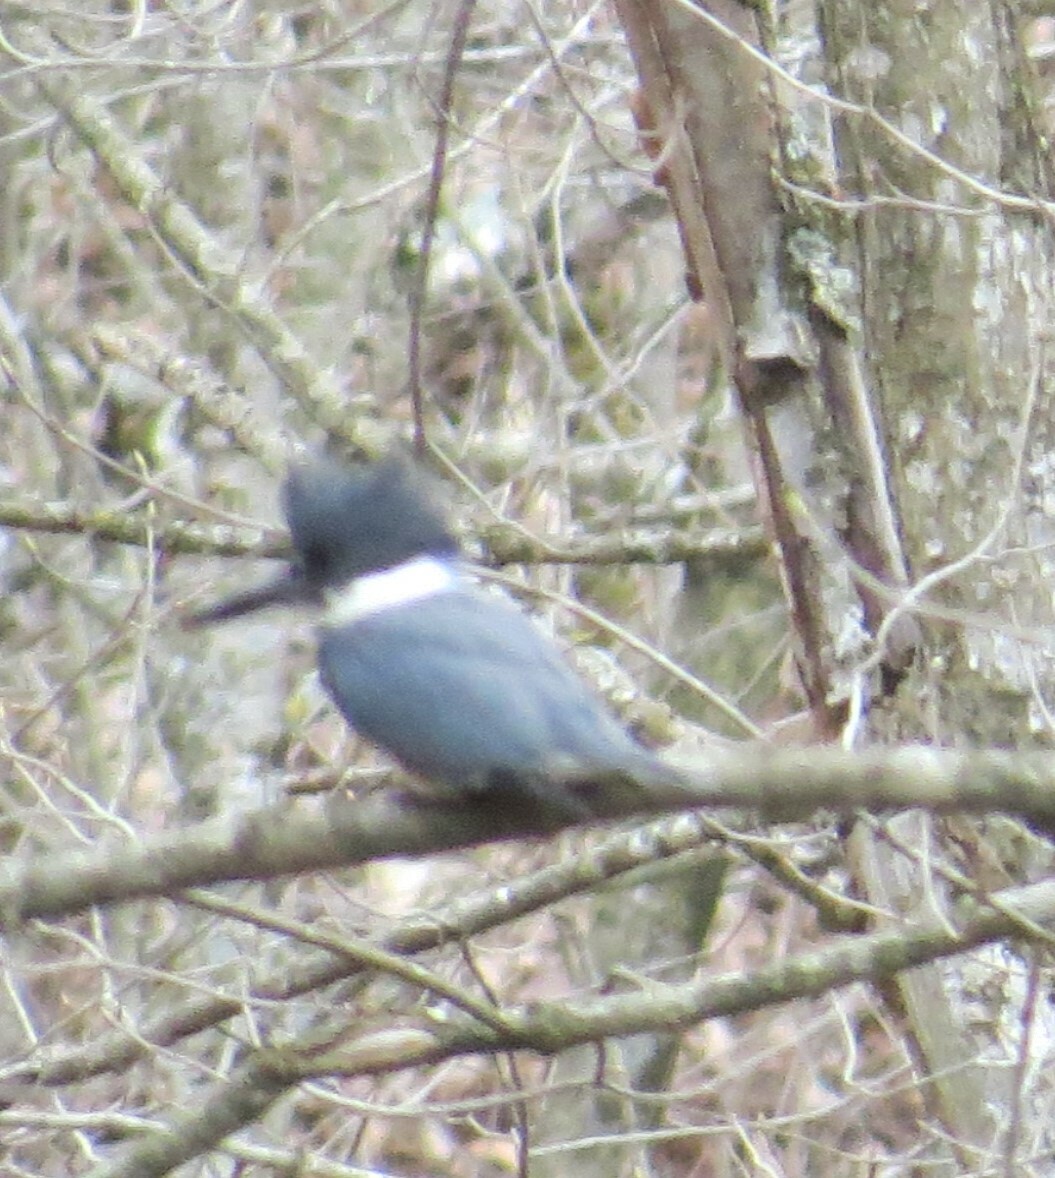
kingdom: Animalia
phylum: Chordata
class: Aves
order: Coraciiformes
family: Alcedinidae
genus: Megaceryle
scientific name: Megaceryle alcyon
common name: Belted kingfisher
